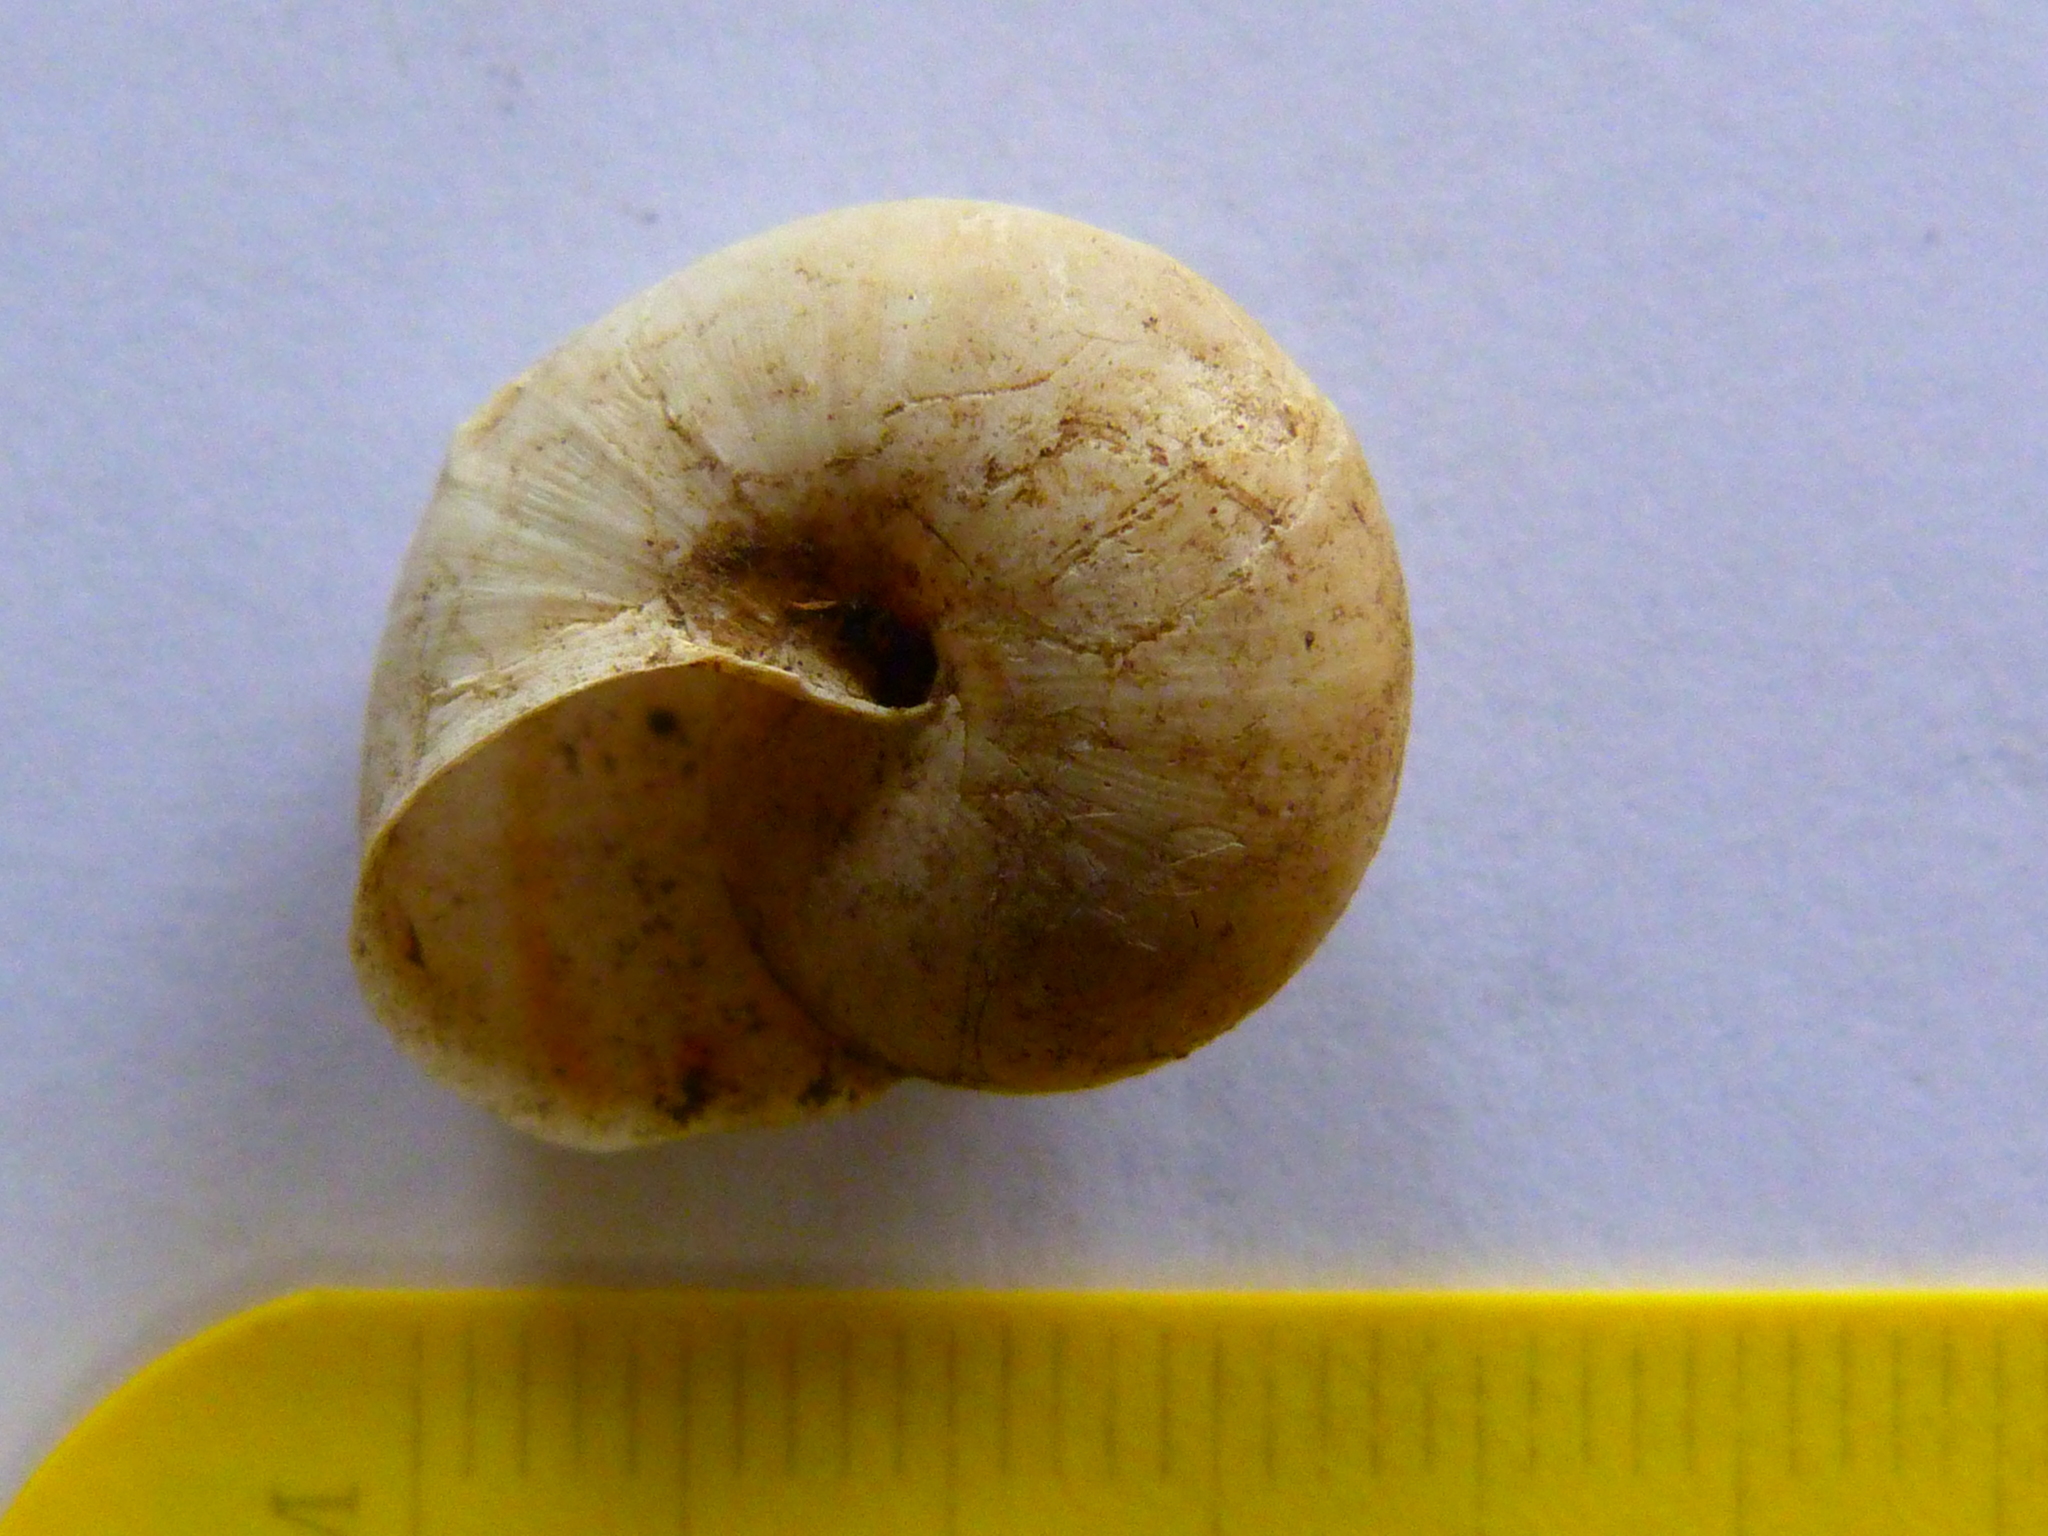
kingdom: Animalia
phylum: Mollusca
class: Gastropoda
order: Stylommatophora
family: Xanthonychidae
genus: Helminthoglypta
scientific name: Helminthoglypta traskii
